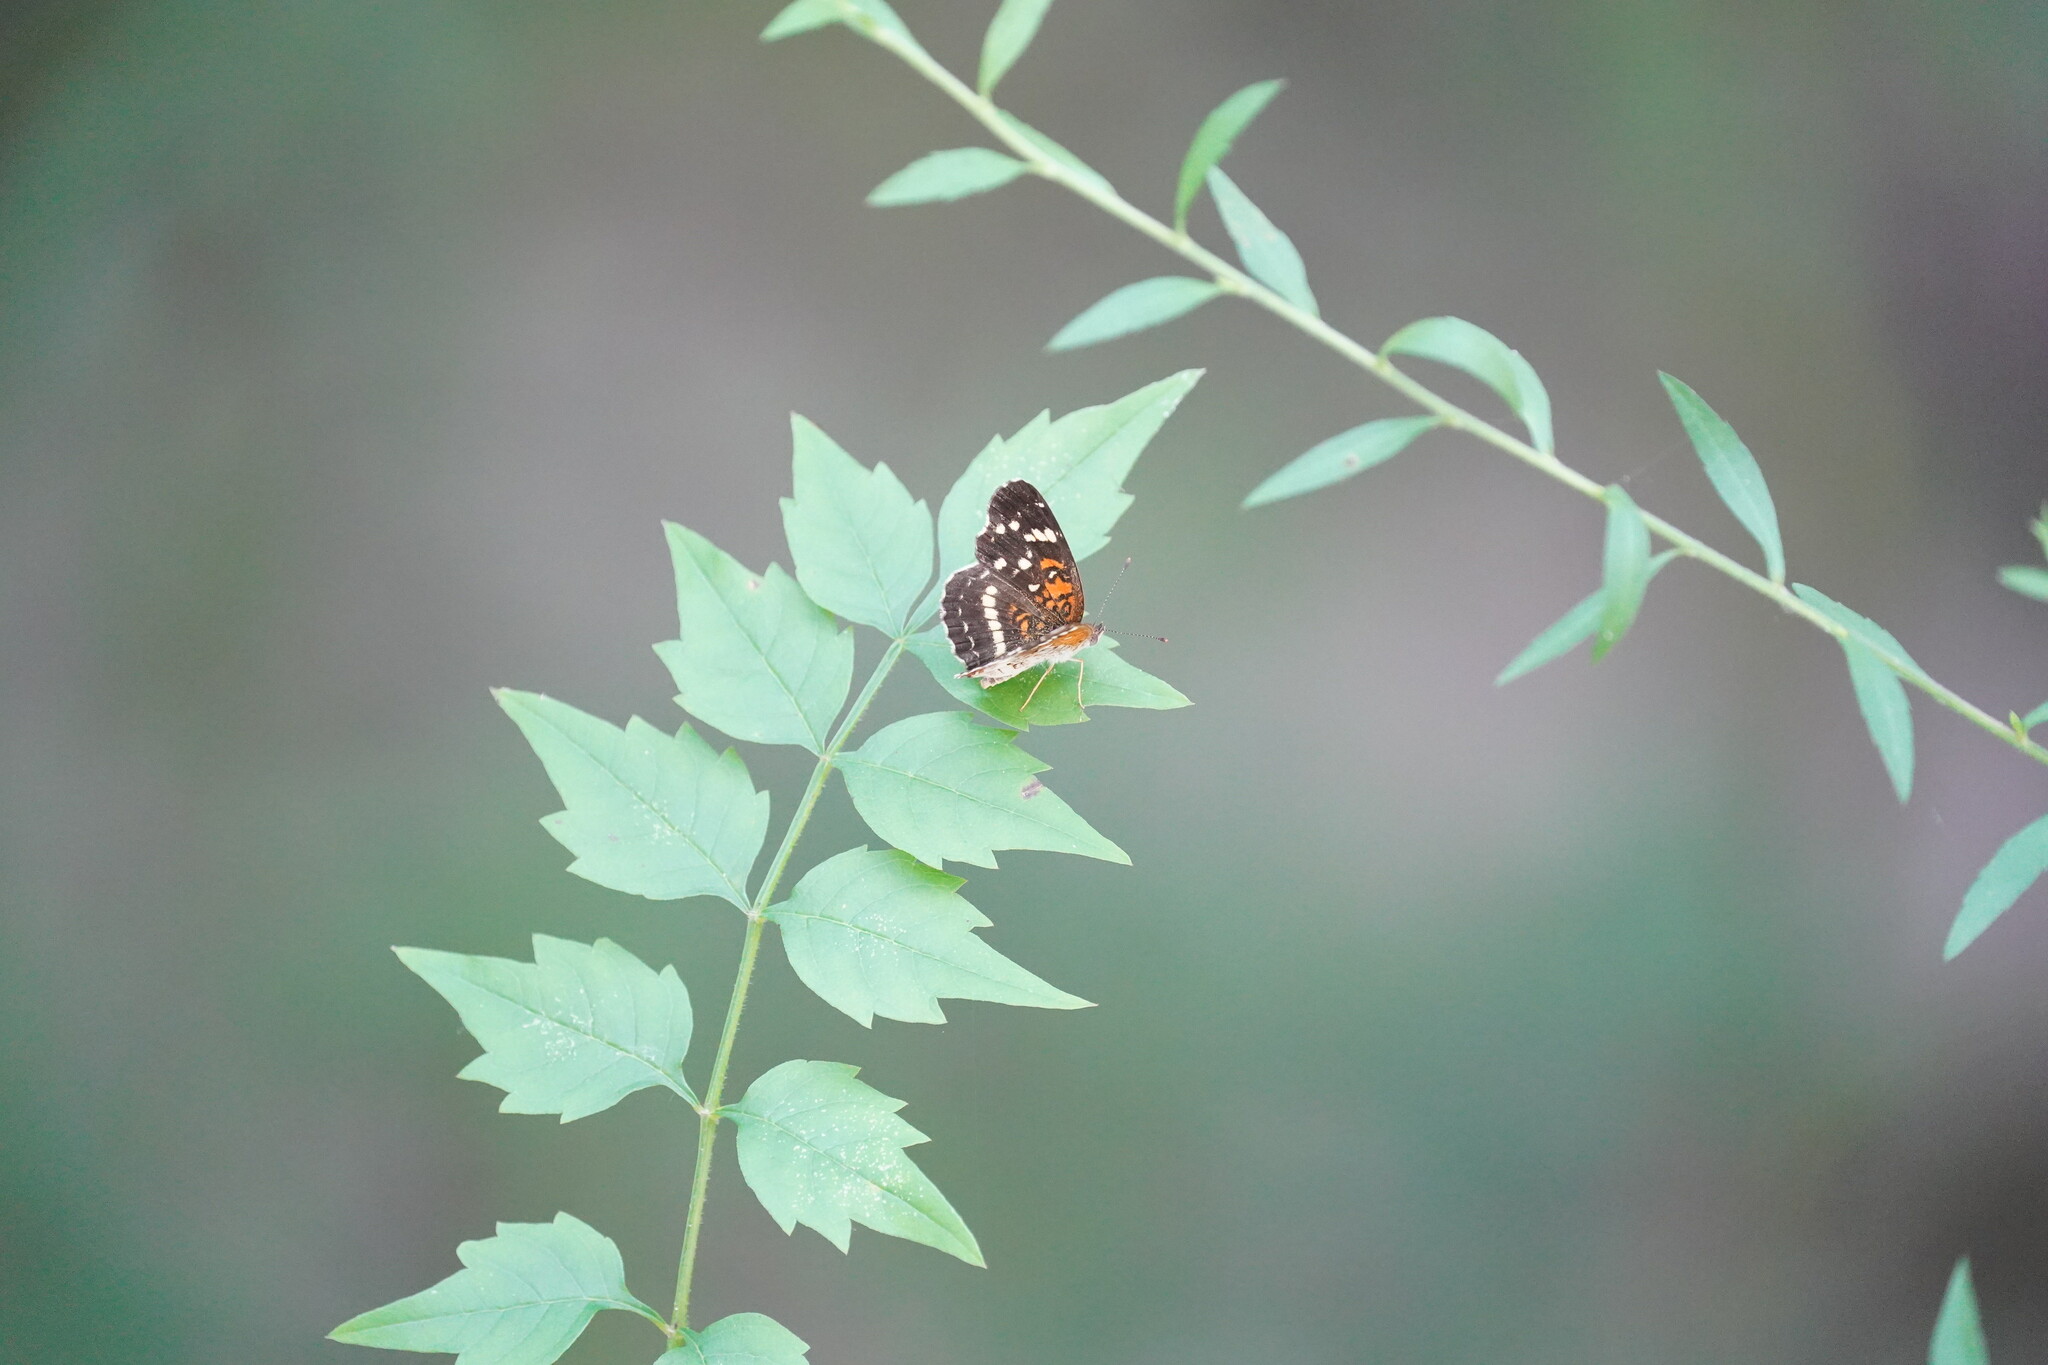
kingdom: Animalia
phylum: Arthropoda
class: Insecta
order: Lepidoptera
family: Nymphalidae
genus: Anthanassa
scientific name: Anthanassa taxana
